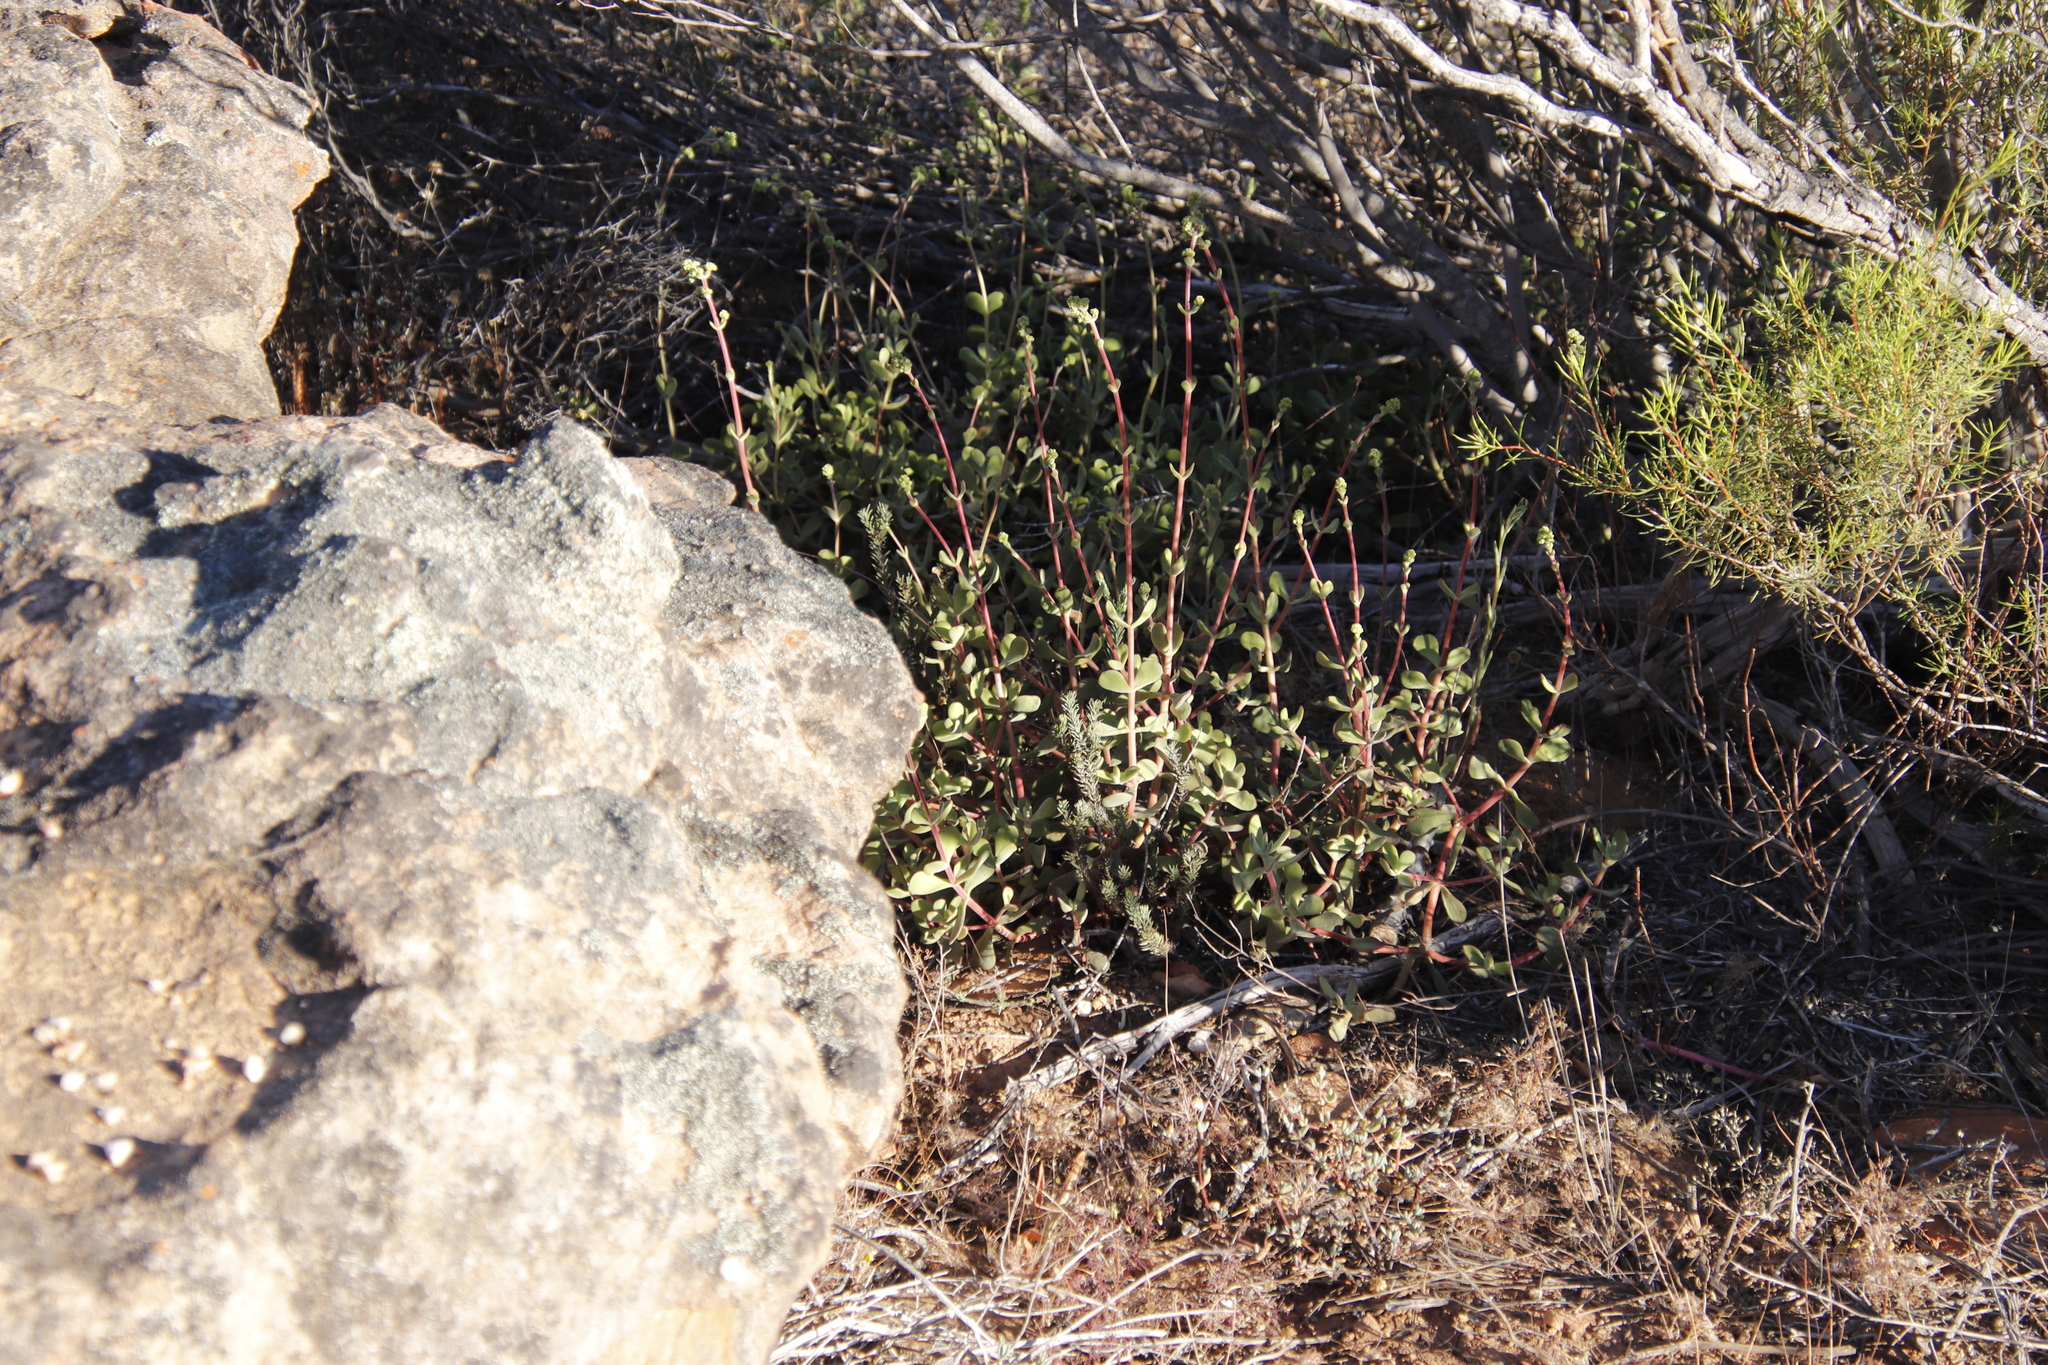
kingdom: Plantae
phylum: Tracheophyta
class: Magnoliopsida
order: Saxifragales
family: Crassulaceae
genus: Crassula
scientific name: Crassula atropurpurea
